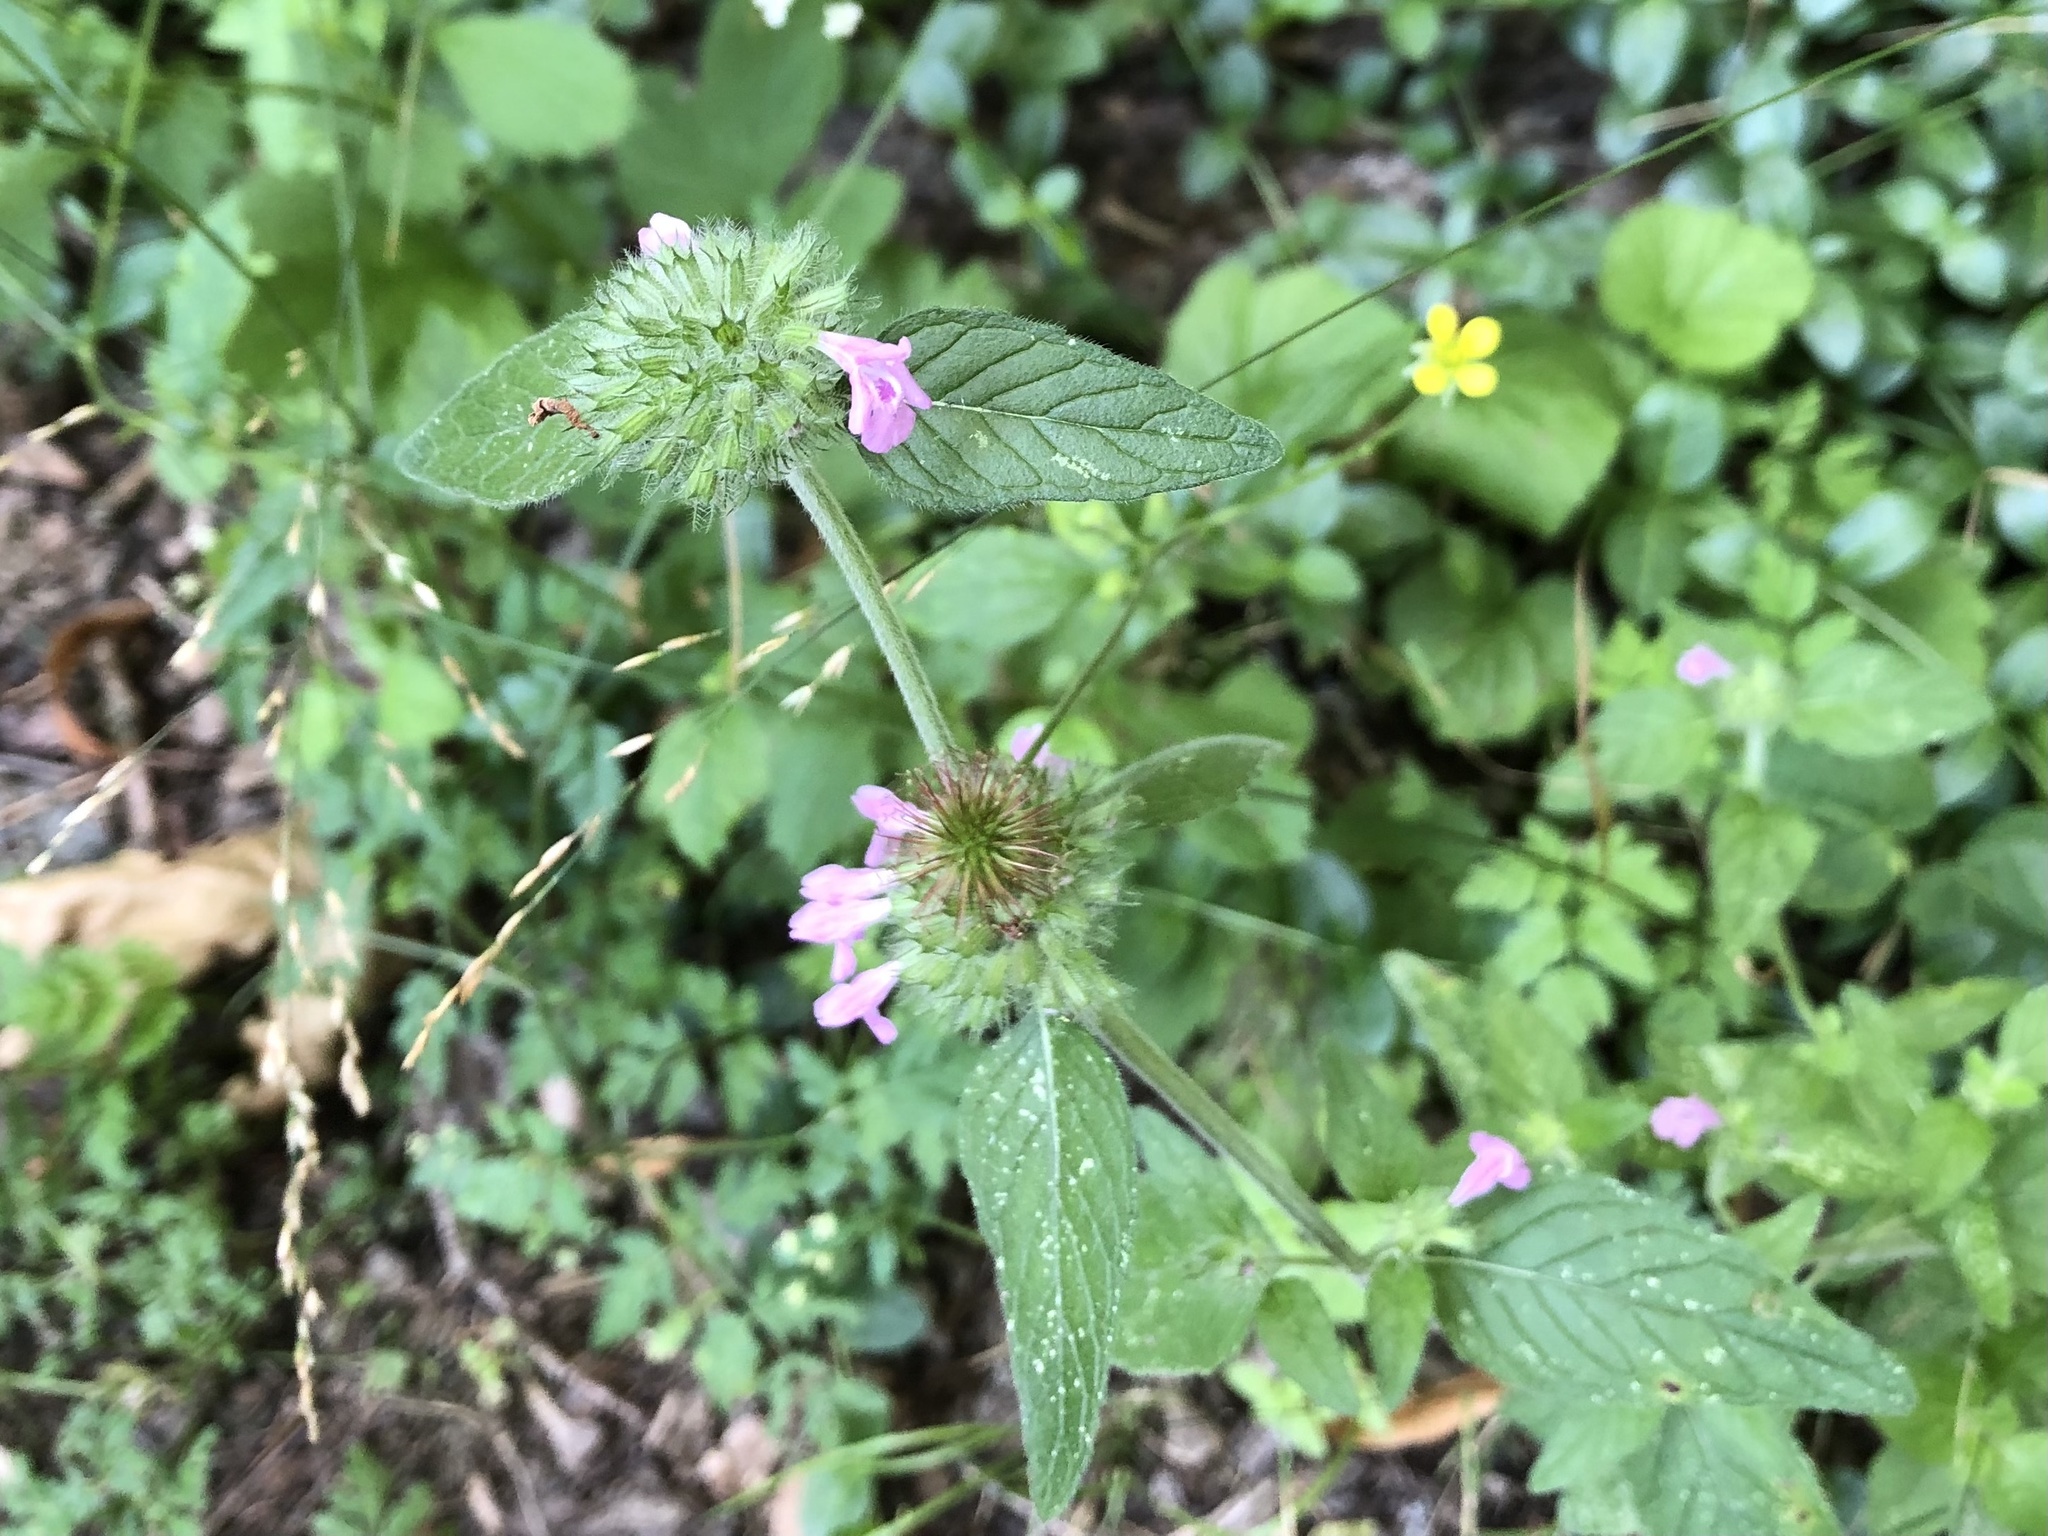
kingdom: Plantae
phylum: Tracheophyta
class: Magnoliopsida
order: Lamiales
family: Lamiaceae
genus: Clinopodium
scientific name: Clinopodium vulgare
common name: Wild basil
